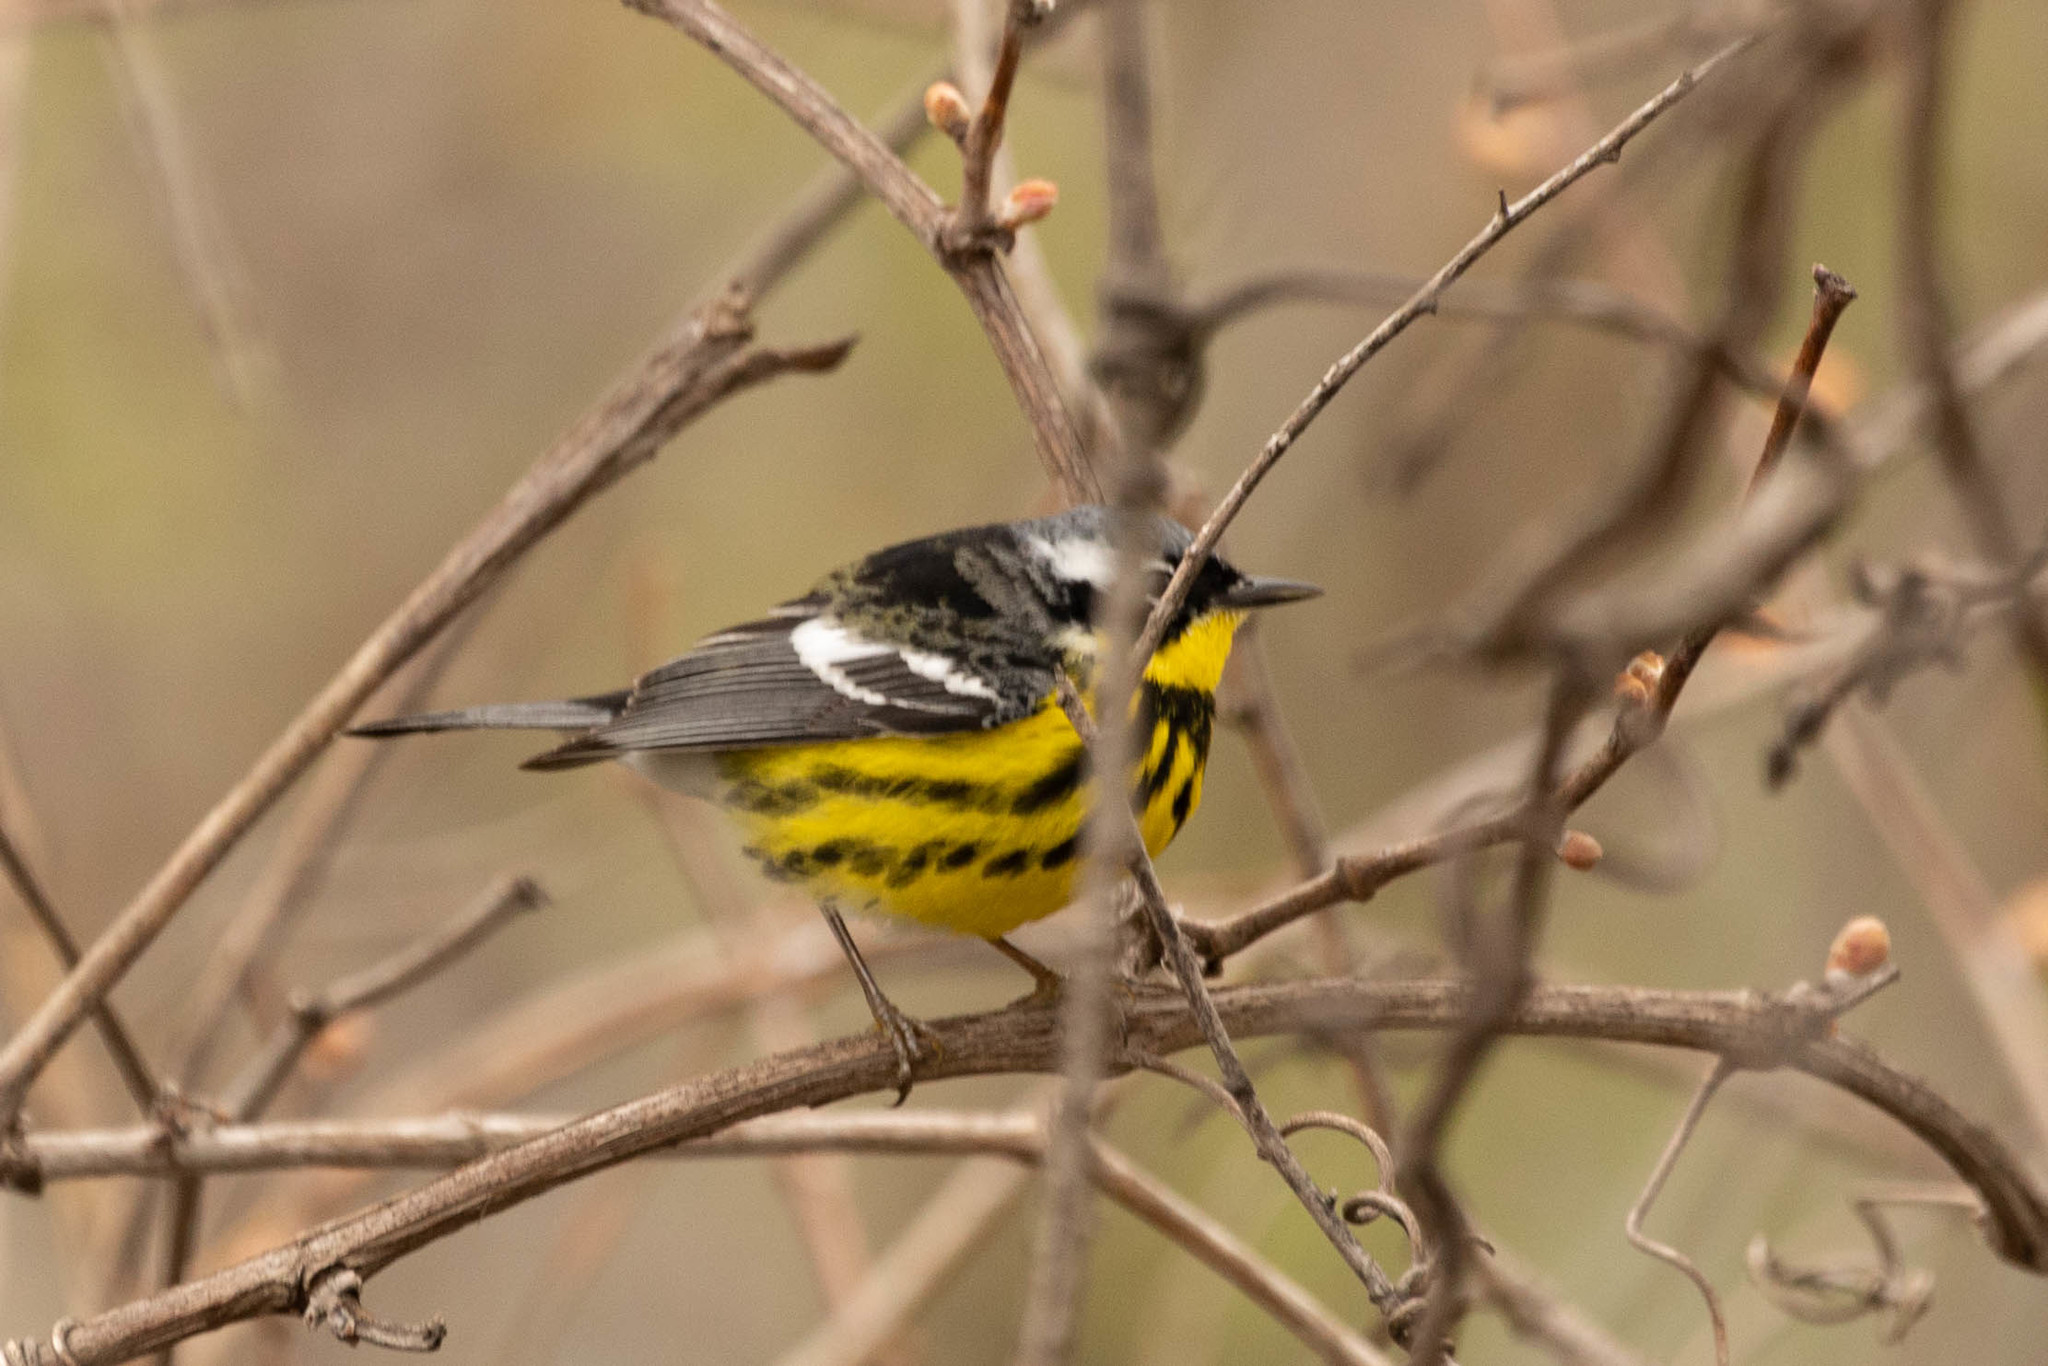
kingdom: Animalia
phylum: Chordata
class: Aves
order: Passeriformes
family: Parulidae
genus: Setophaga
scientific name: Setophaga magnolia
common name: Magnolia warbler
